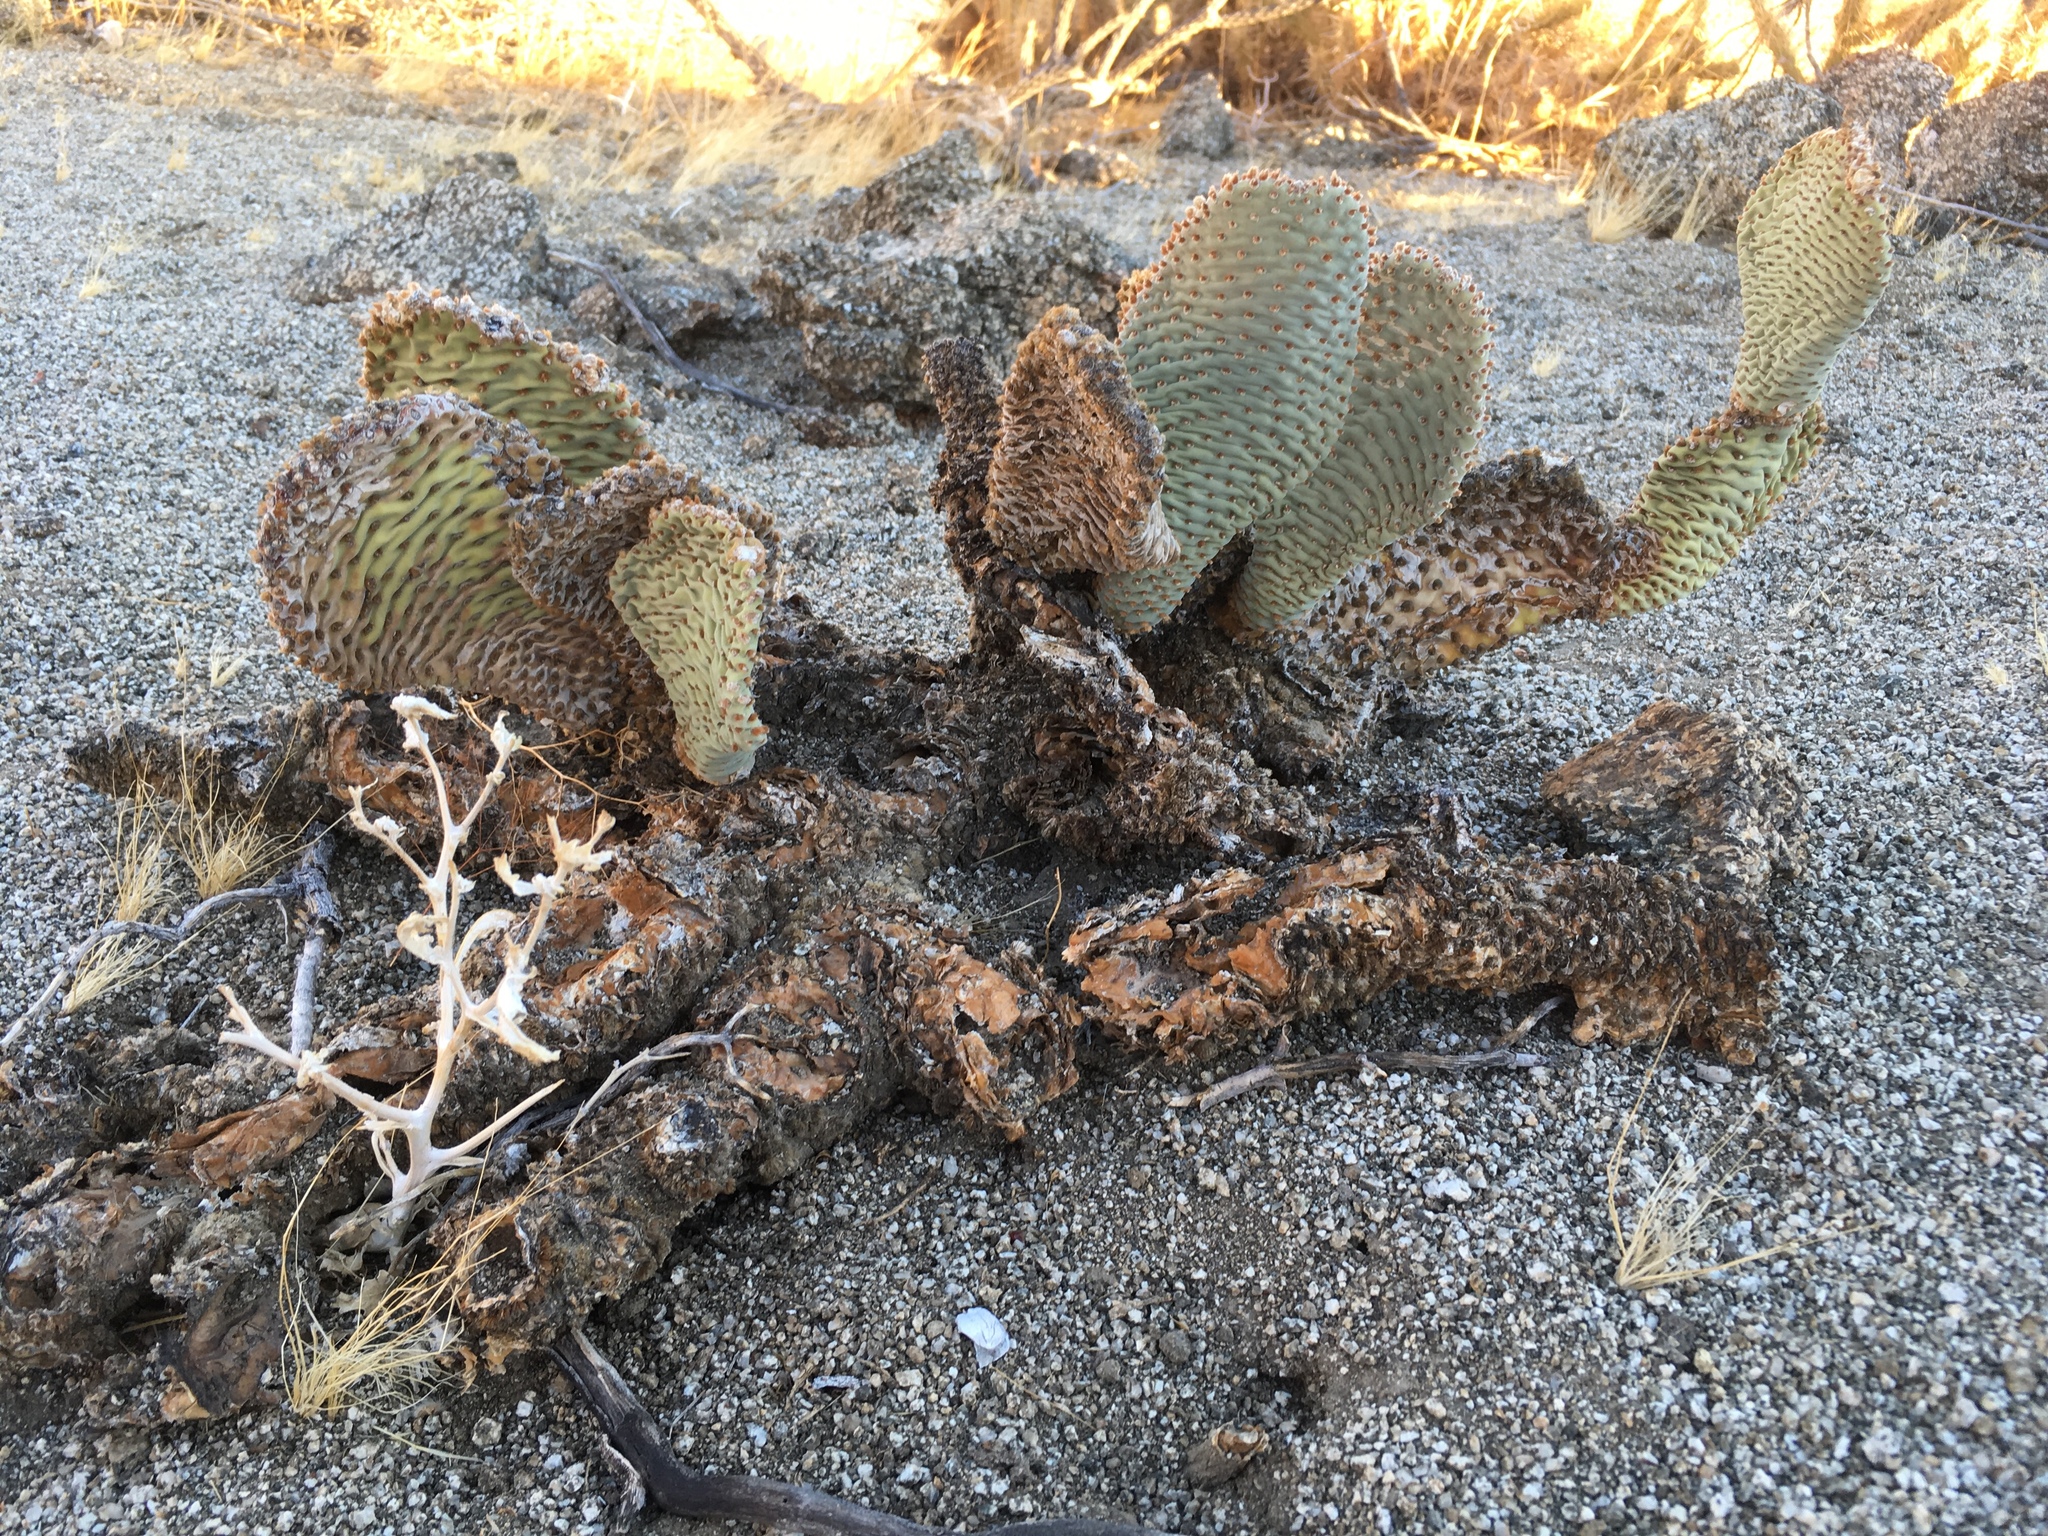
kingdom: Plantae
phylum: Tracheophyta
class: Magnoliopsida
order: Caryophyllales
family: Cactaceae
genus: Opuntia
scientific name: Opuntia basilaris
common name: Beavertail prickly-pear
